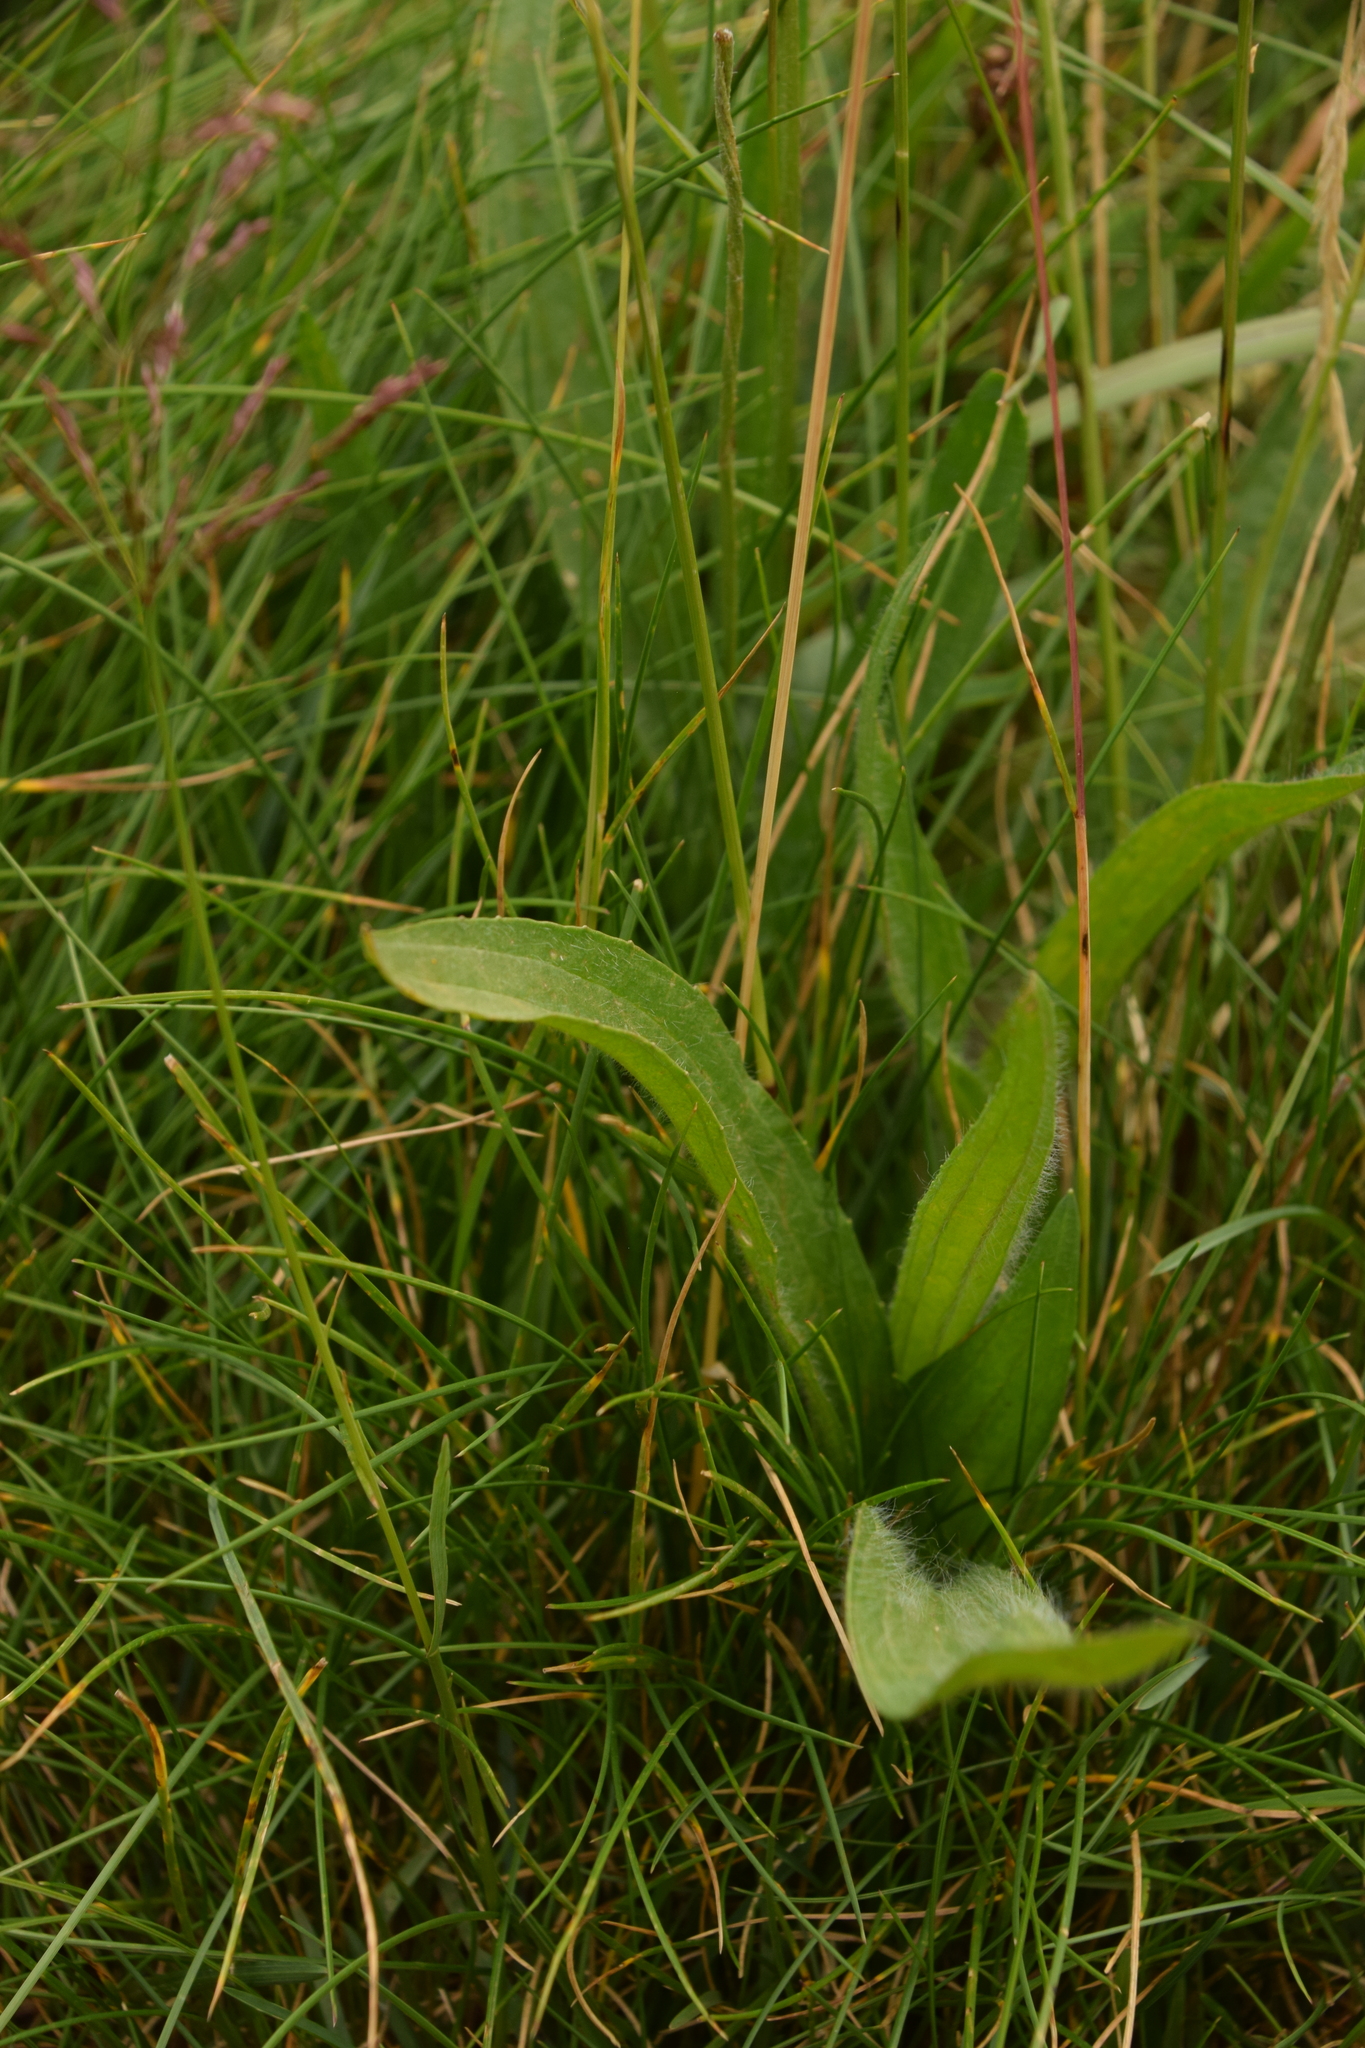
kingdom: Plantae
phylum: Tracheophyta
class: Magnoliopsida
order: Lamiales
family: Plantaginaceae
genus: Plantago
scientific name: Plantago lanceolata
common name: Ribwort plantain
